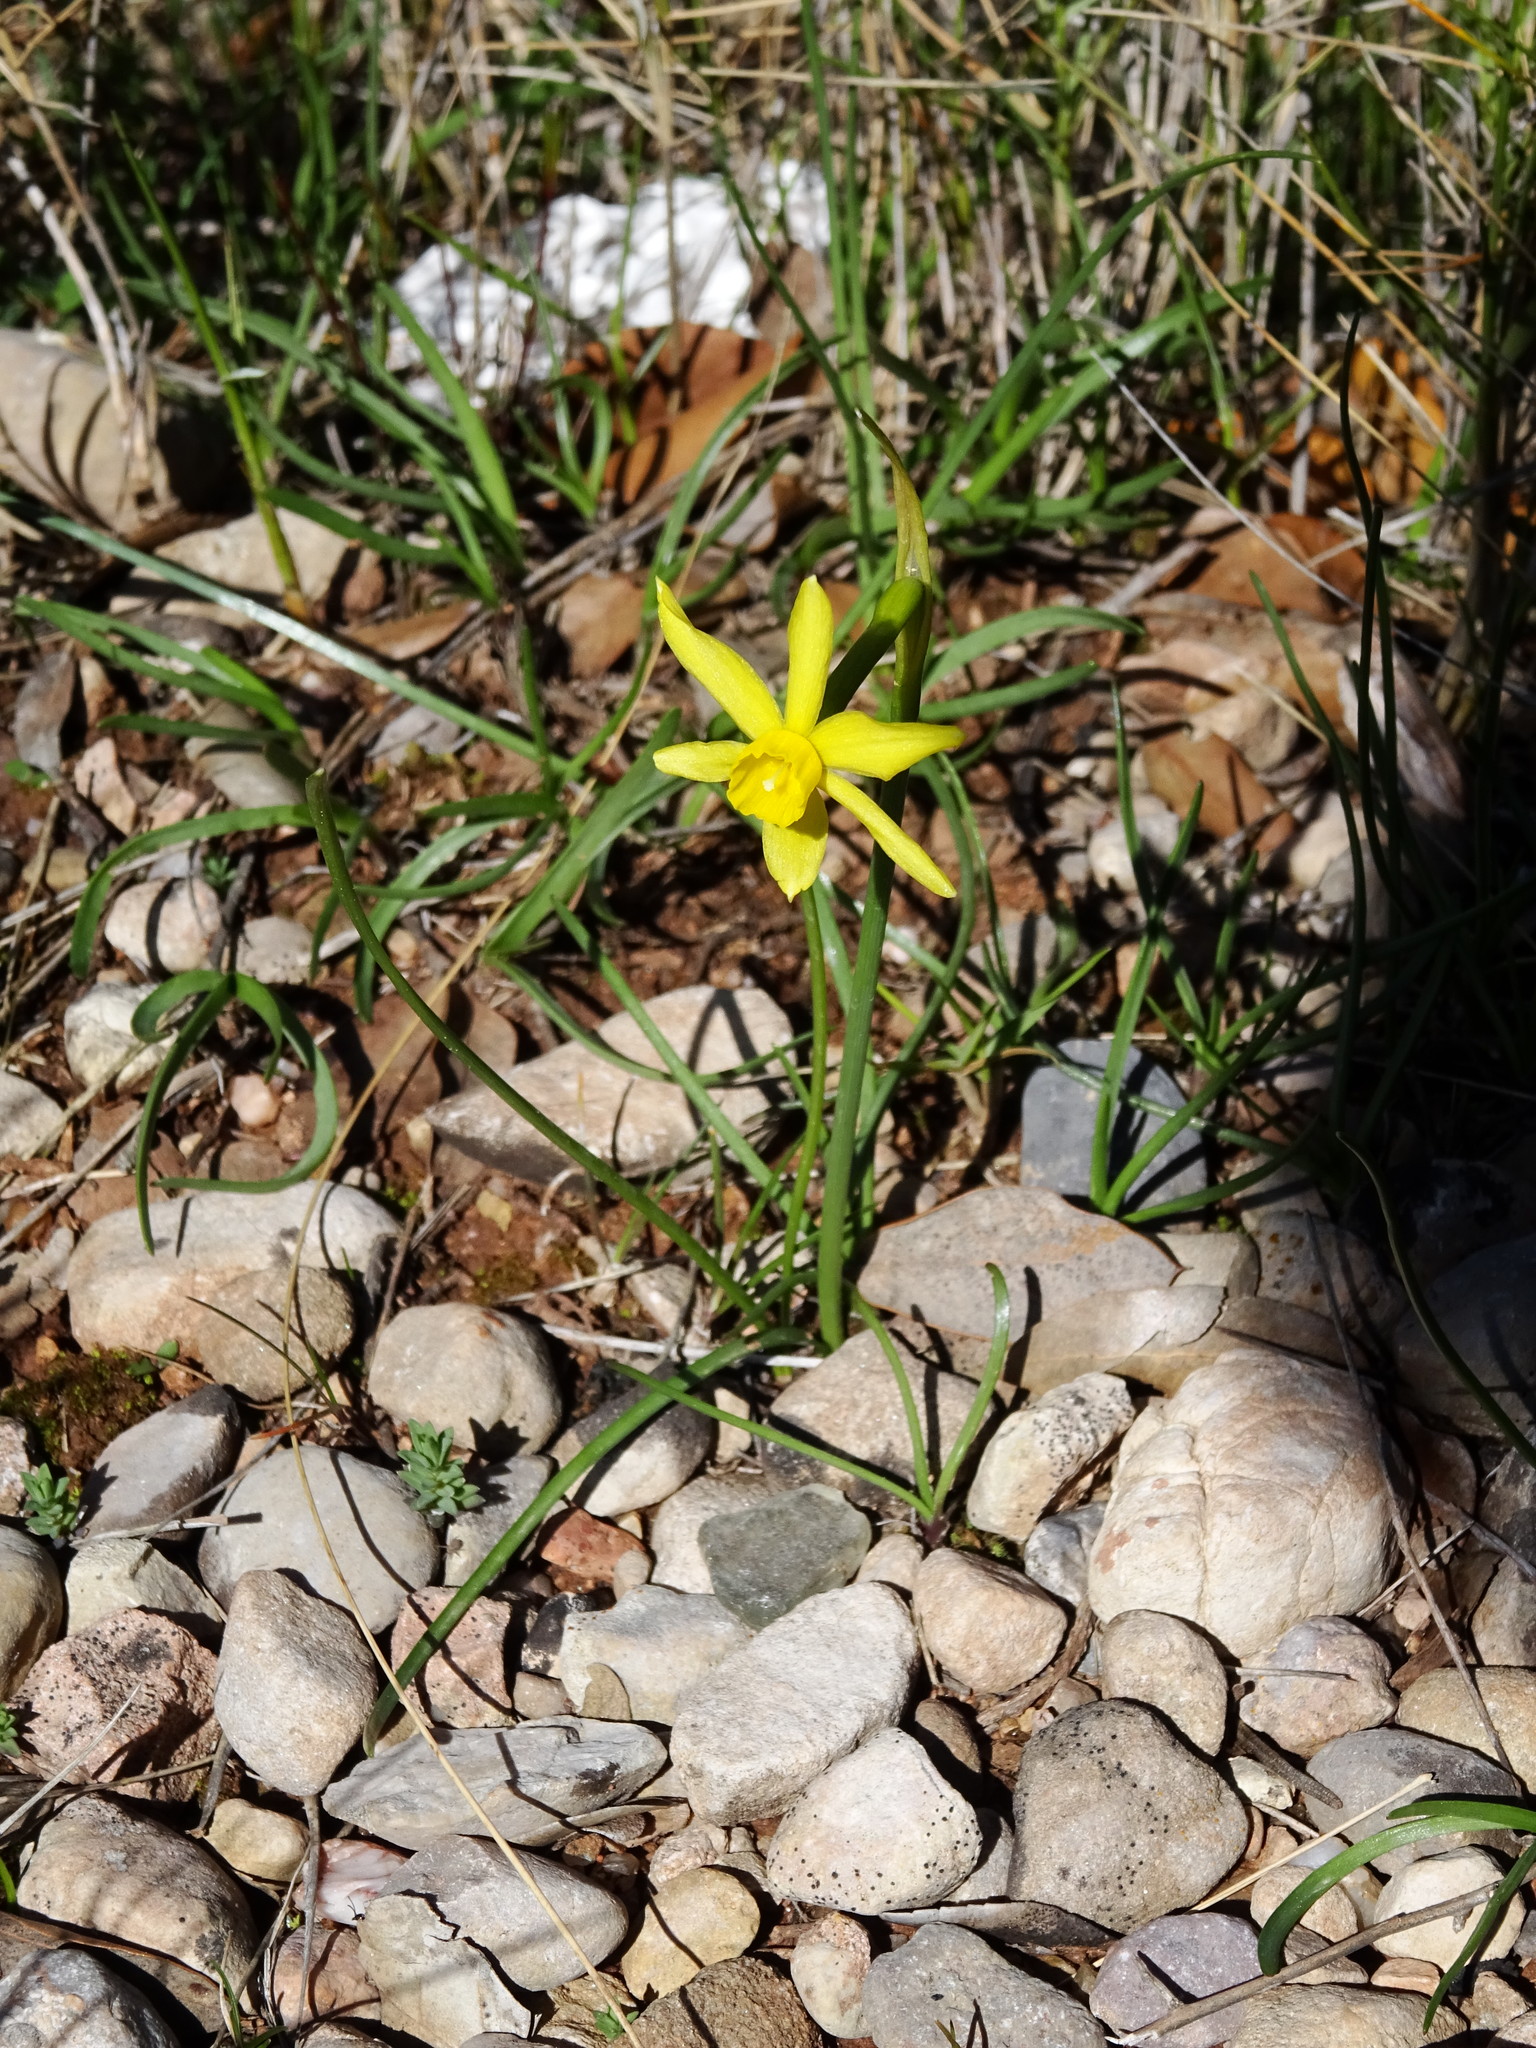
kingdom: Plantae
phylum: Tracheophyta
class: Liliopsida
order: Asparagales
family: Amaryllidaceae
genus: Narcissus
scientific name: Narcissus assoanus
